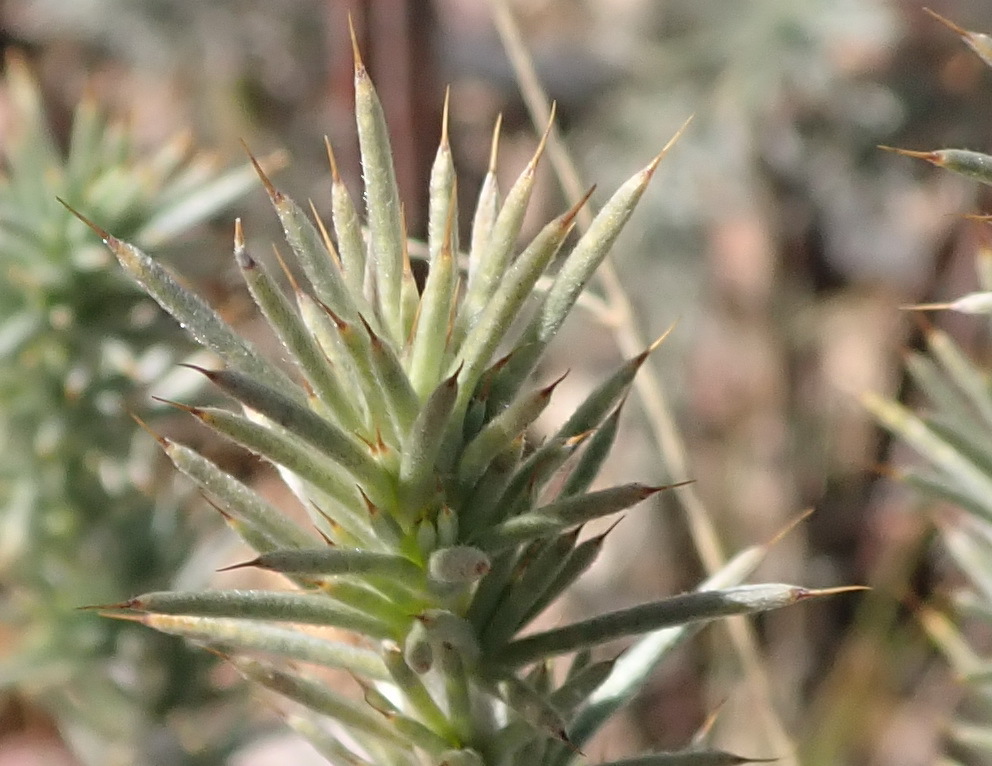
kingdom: Plantae
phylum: Tracheophyta
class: Magnoliopsida
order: Fabales
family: Fabaceae
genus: Aspalathus
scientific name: Aspalathus hystrix
